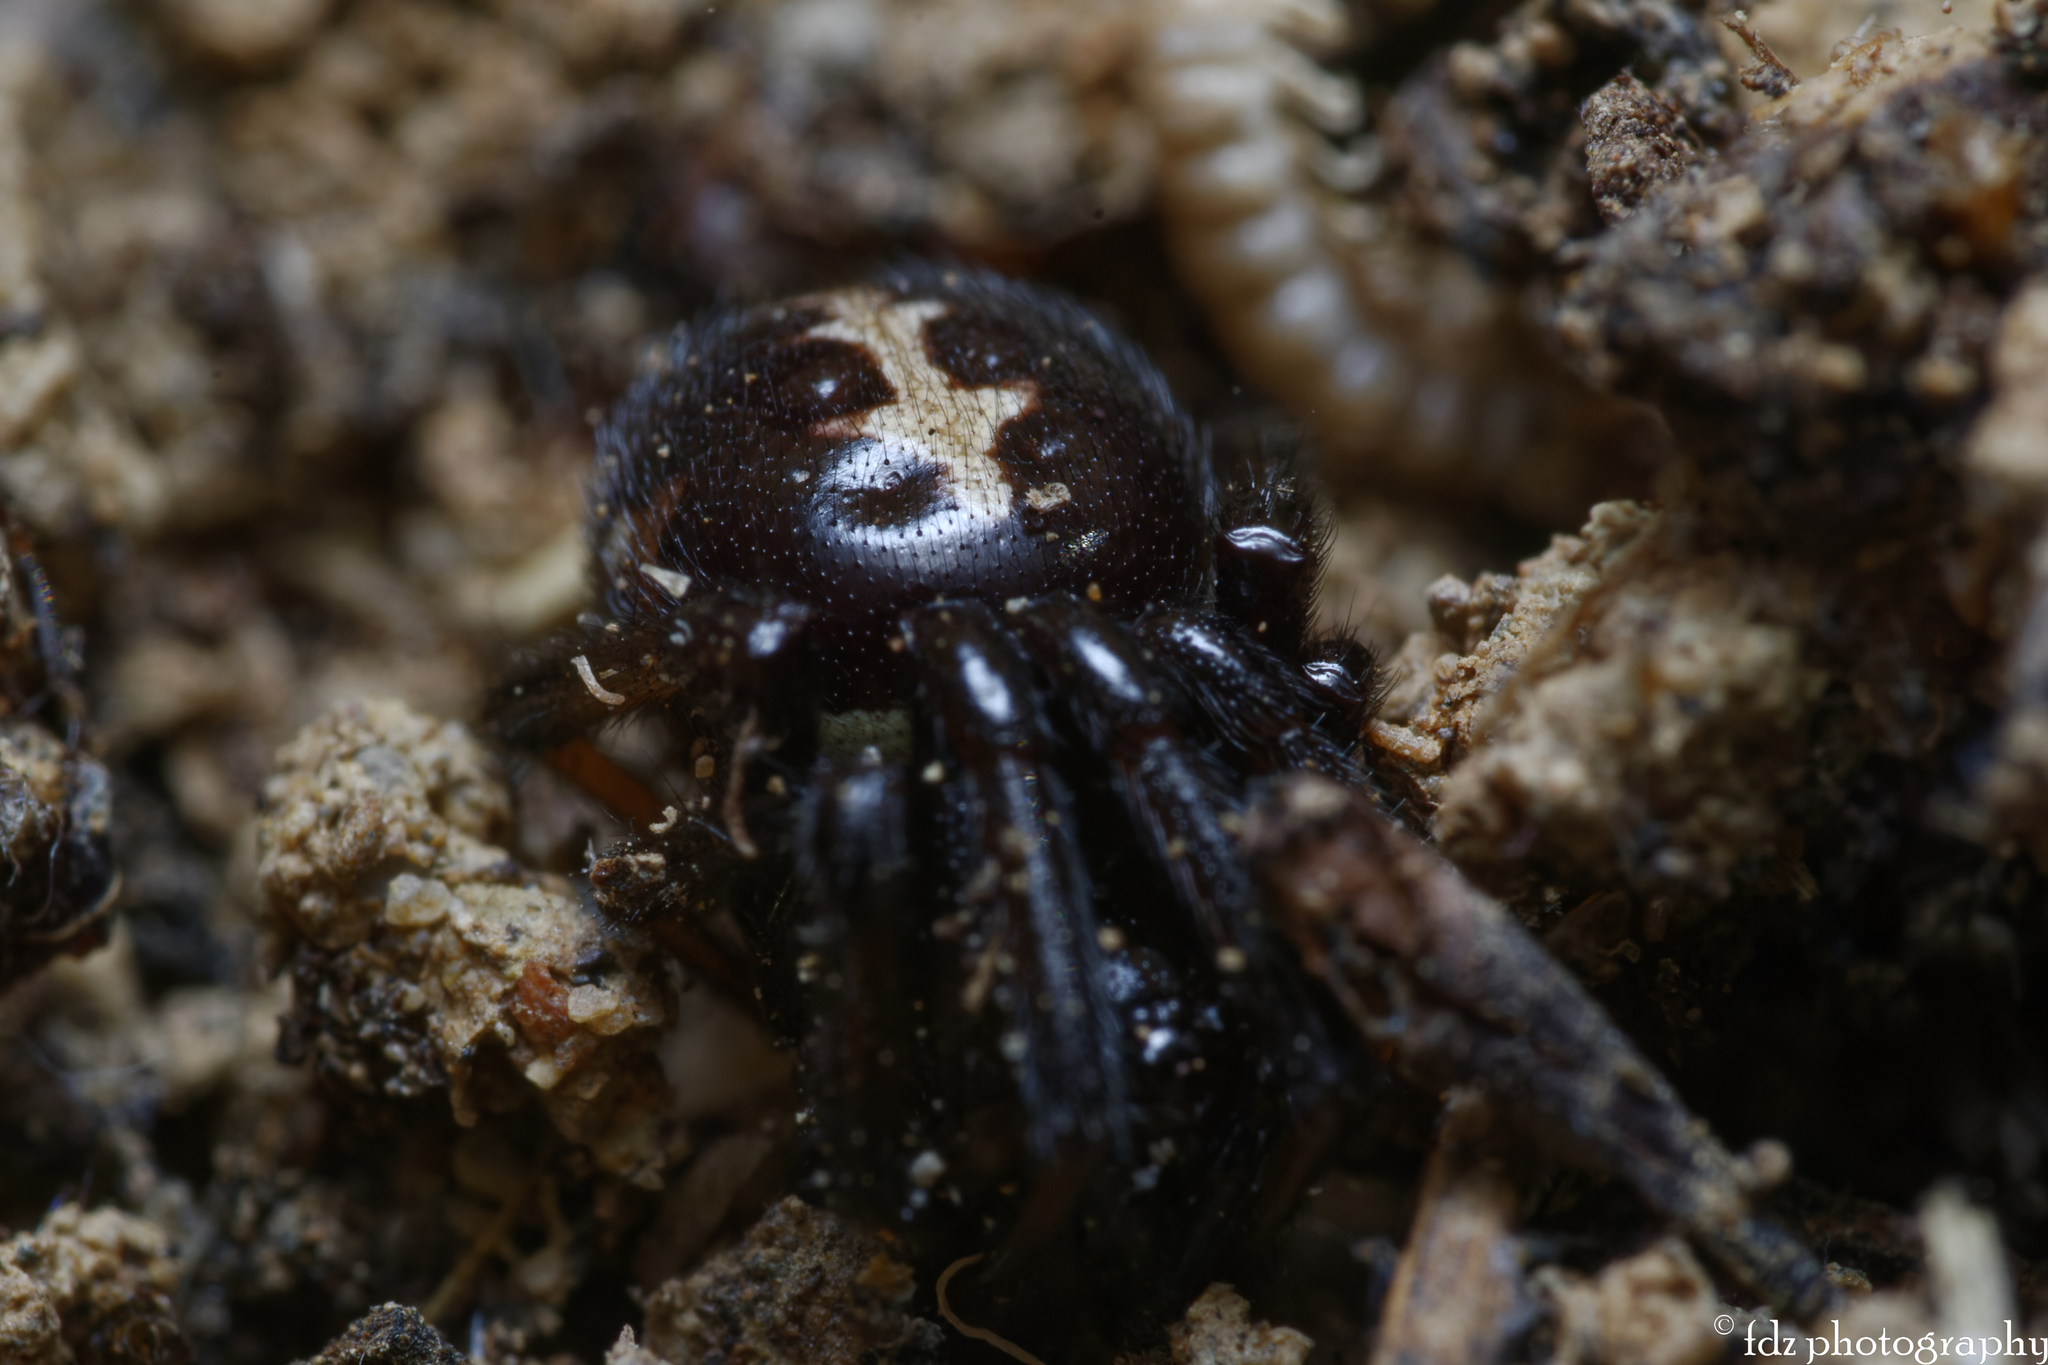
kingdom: Animalia
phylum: Arthropoda
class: Arachnida
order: Araneae
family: Theridiidae
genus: Steatoda
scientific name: Steatoda paykulliana
